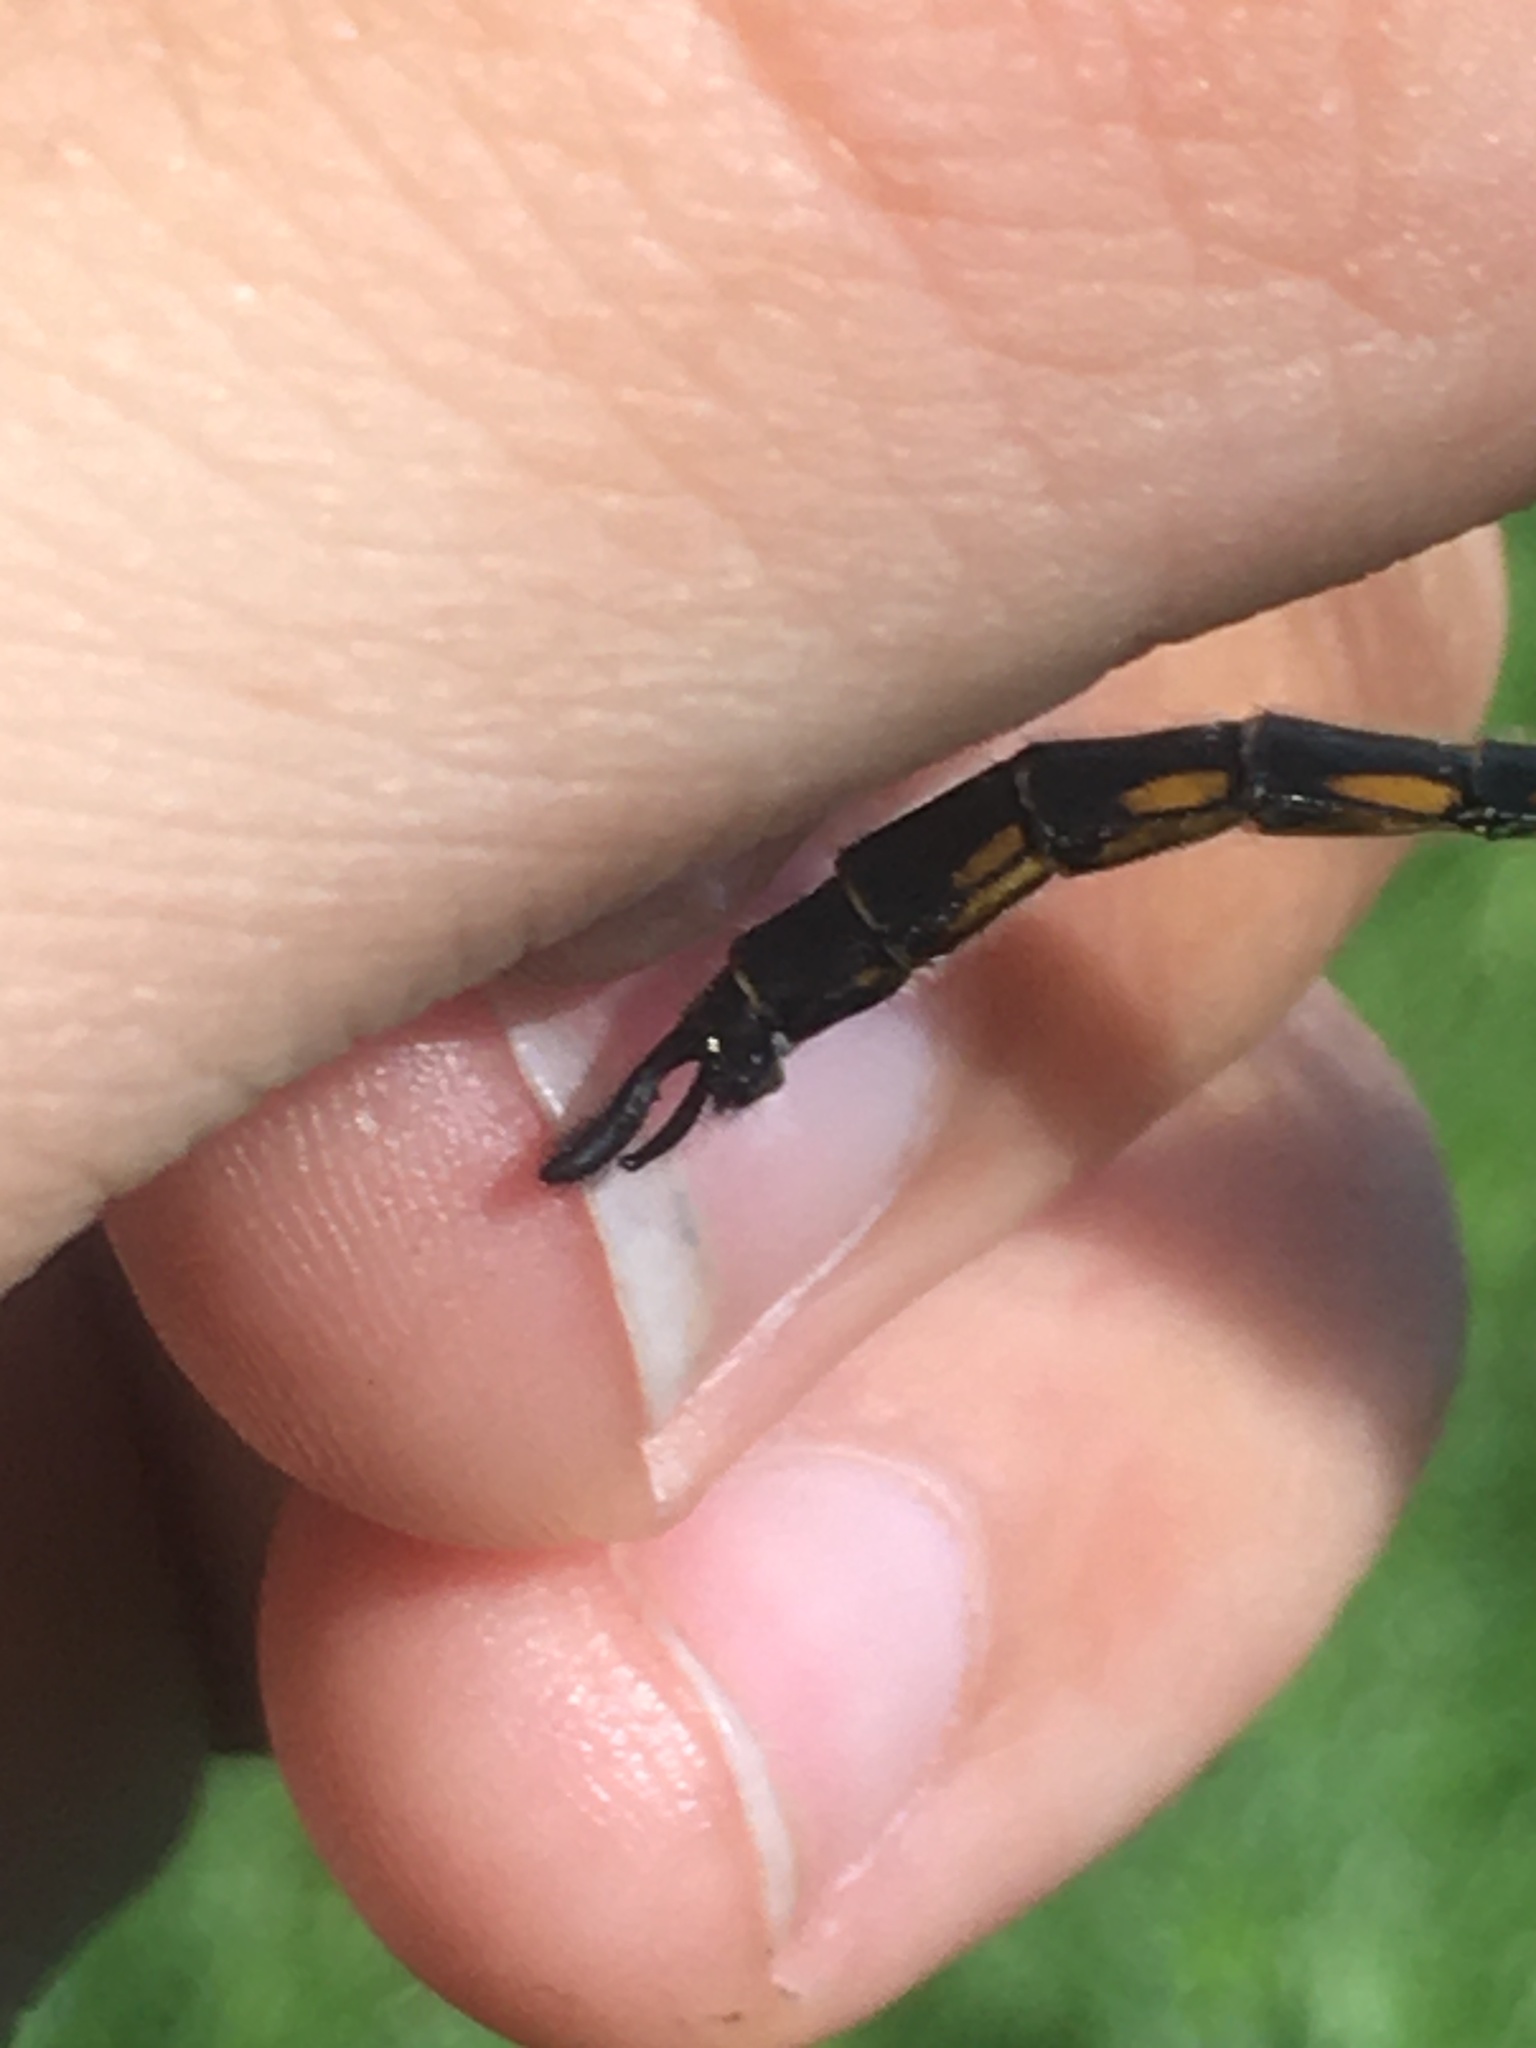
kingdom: Animalia
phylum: Arthropoda
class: Insecta
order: Odonata
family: Corduliidae
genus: Epitheca
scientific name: Epitheca spinigera
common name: Spiny baskettail
